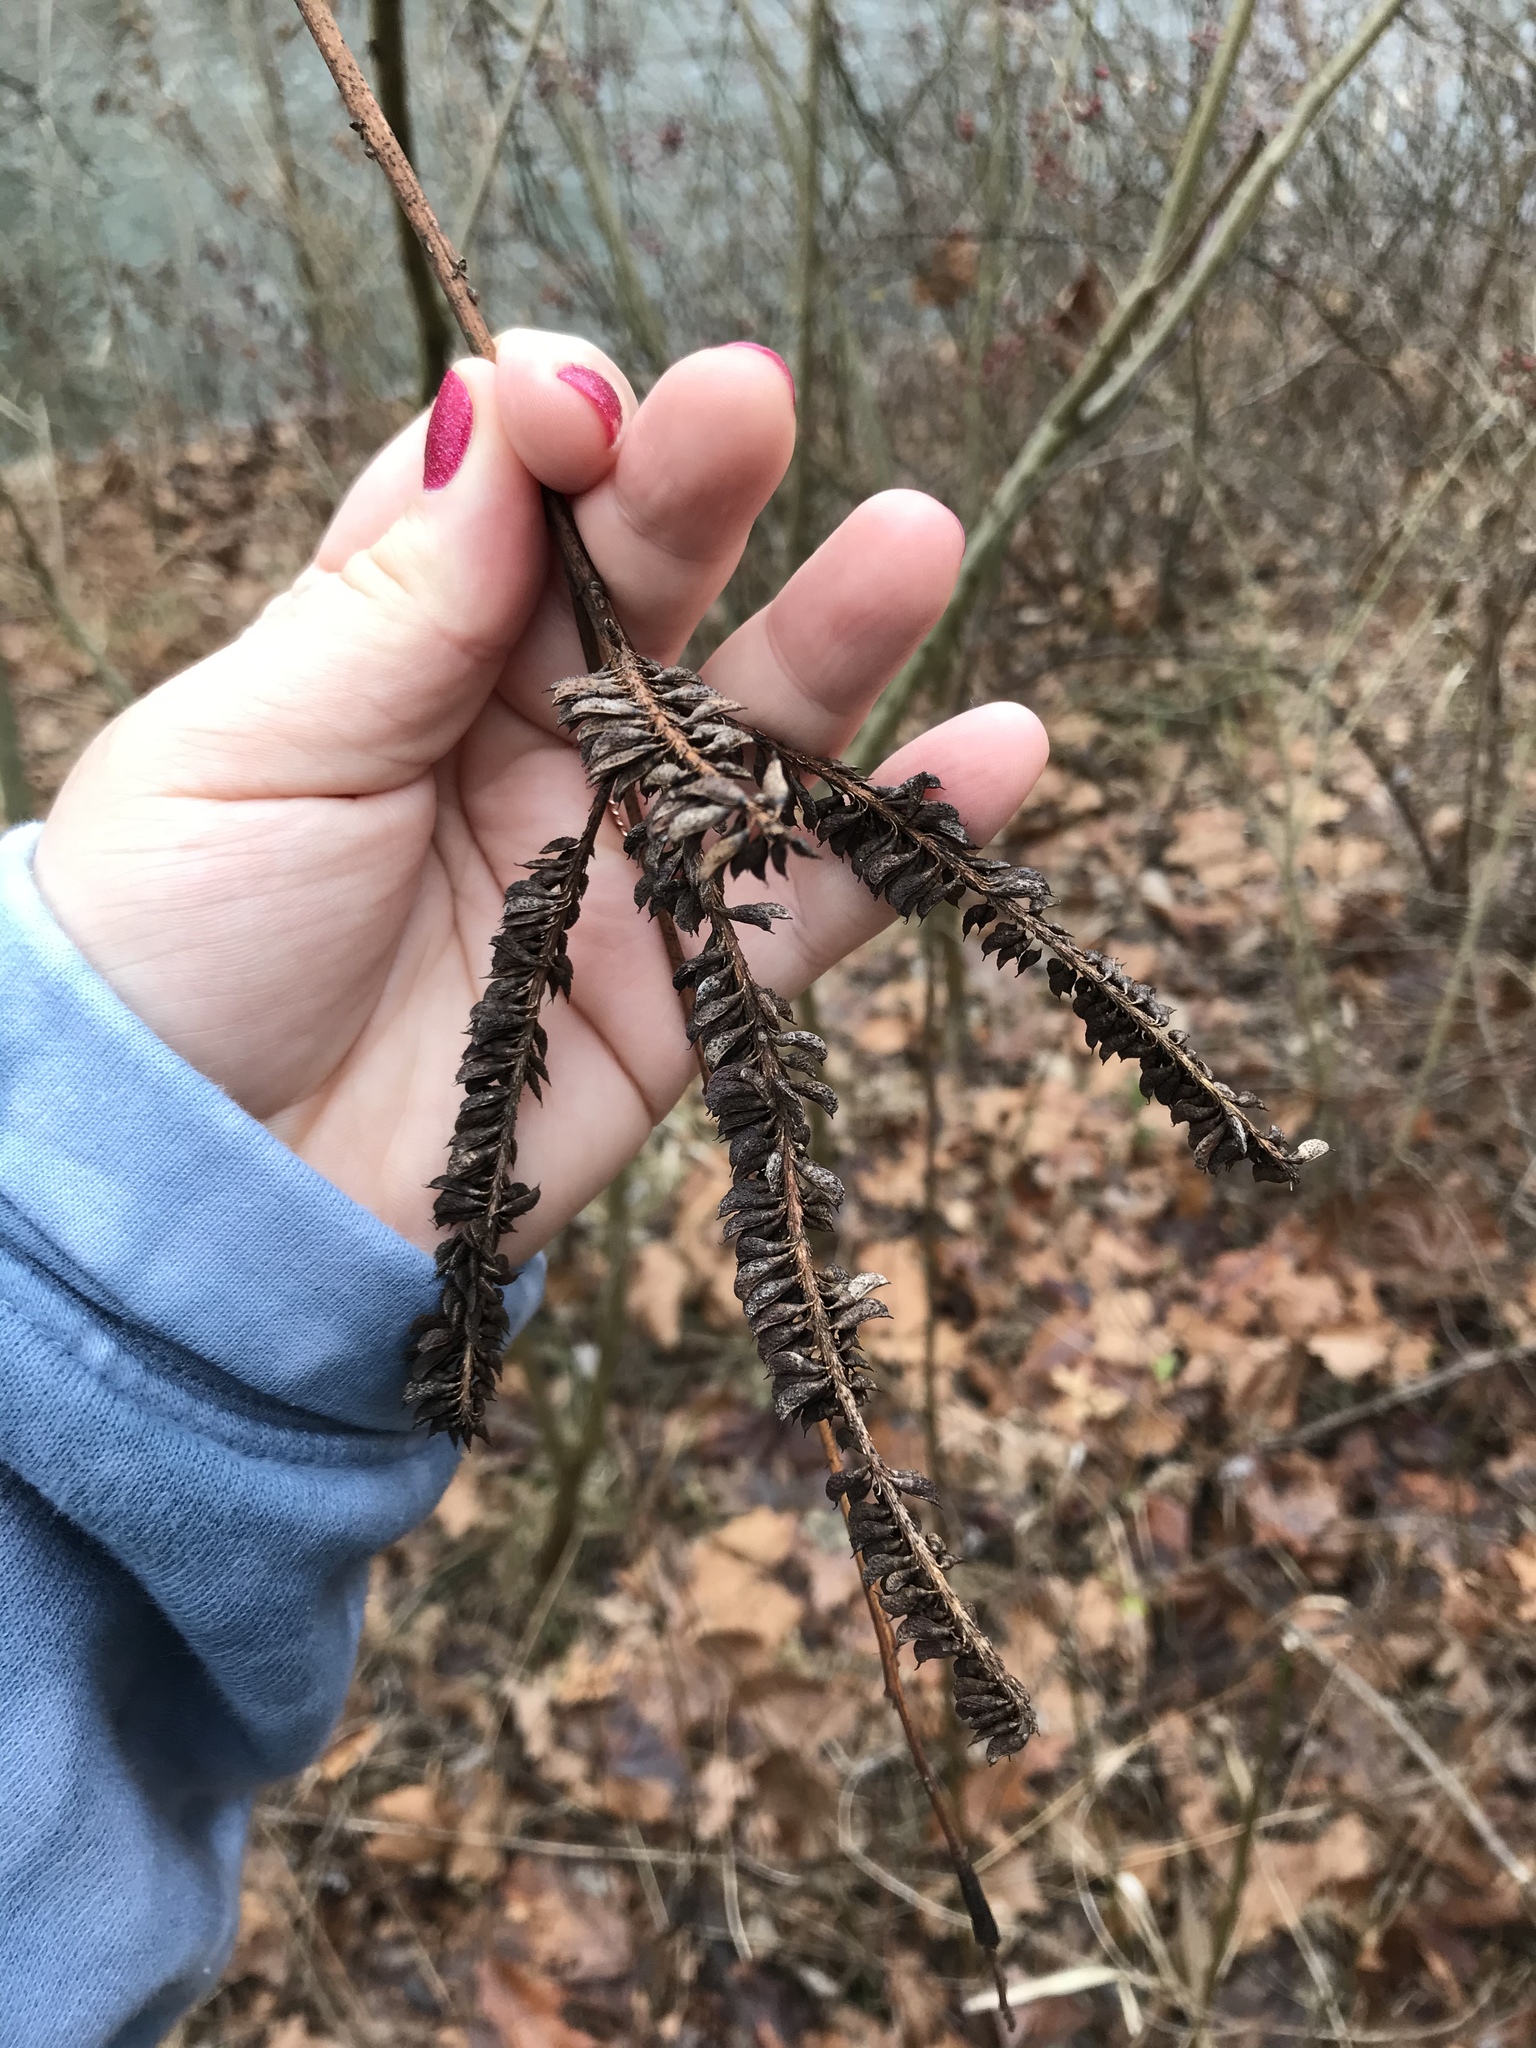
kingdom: Plantae
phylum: Tracheophyta
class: Magnoliopsida
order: Fabales
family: Fabaceae
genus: Amorpha
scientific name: Amorpha fruticosa
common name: False indigo
